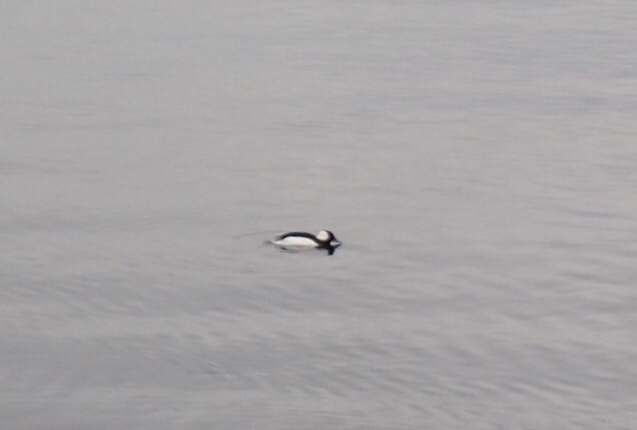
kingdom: Animalia
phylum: Chordata
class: Aves
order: Anseriformes
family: Anatidae
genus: Bucephala
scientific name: Bucephala albeola
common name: Bufflehead
